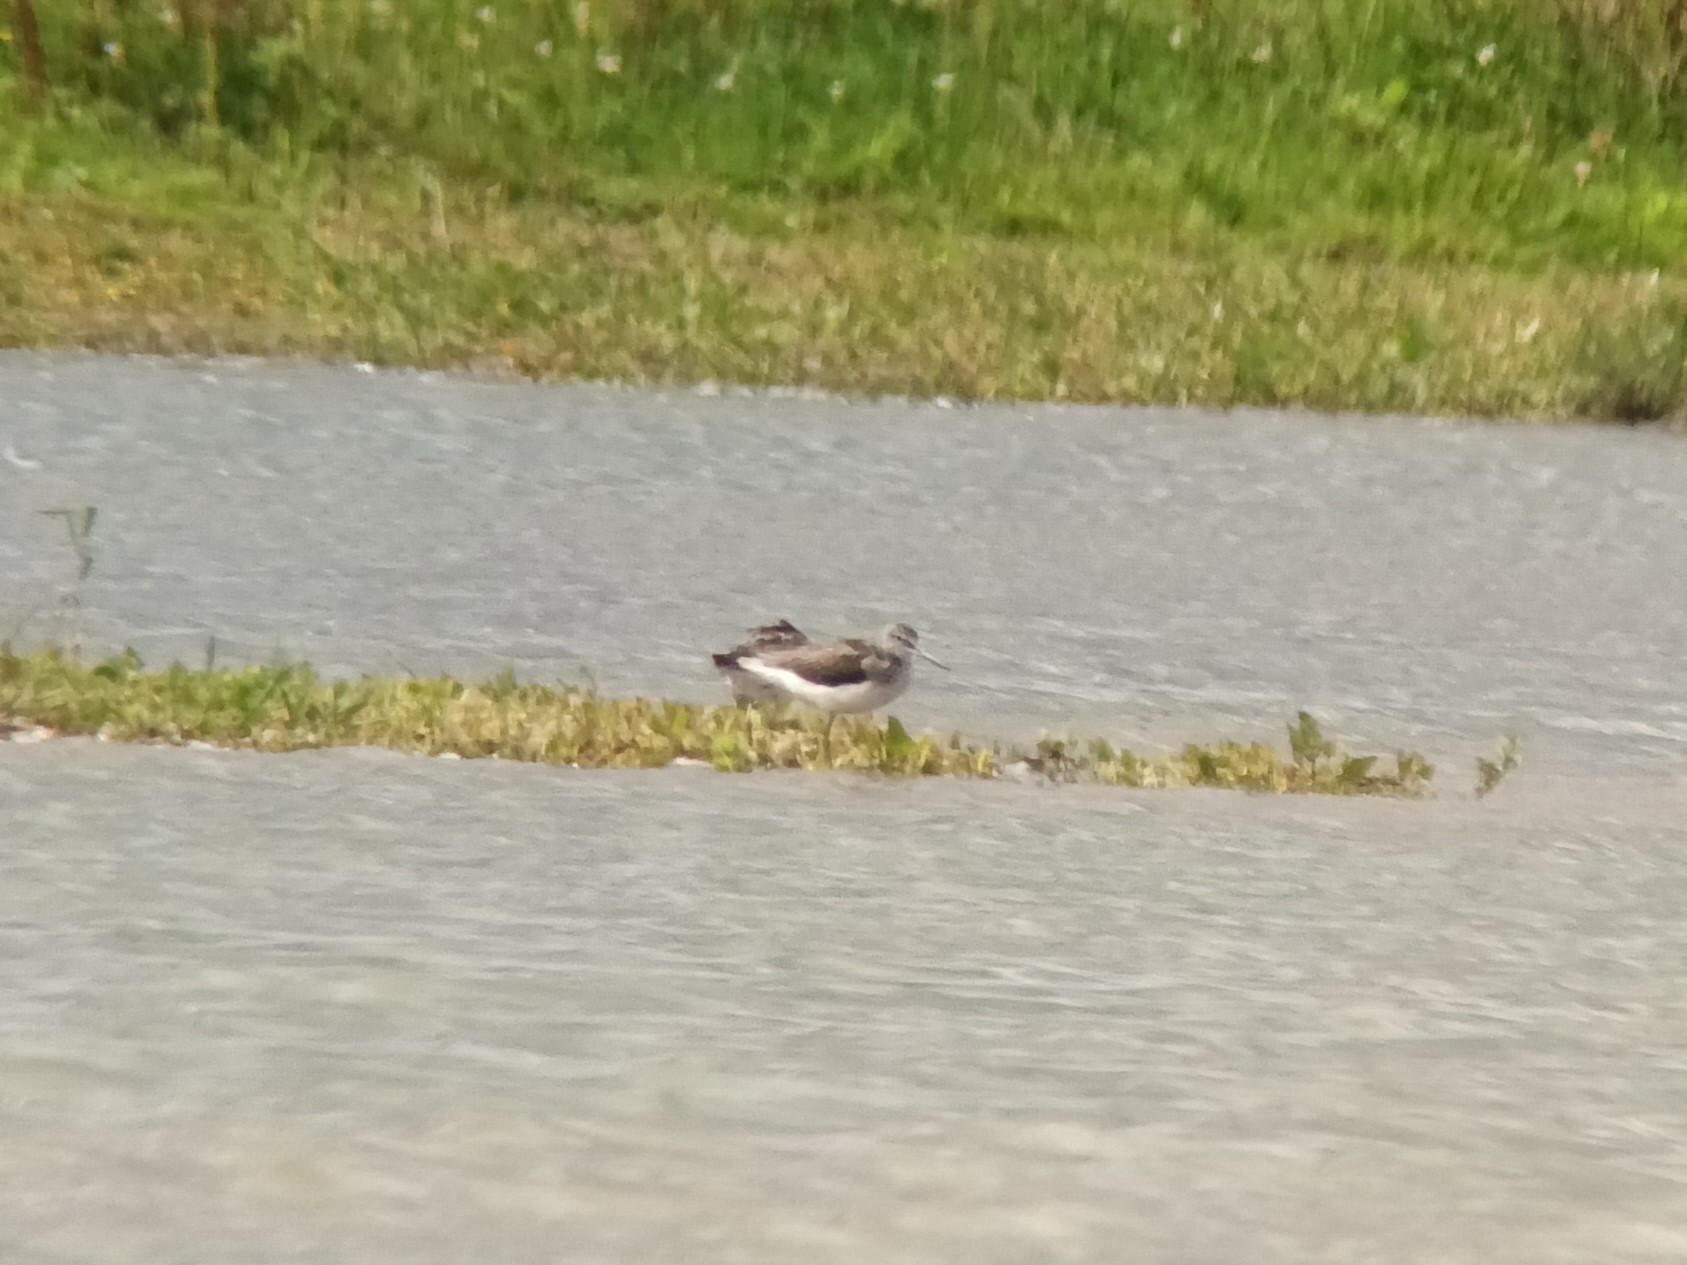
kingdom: Animalia
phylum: Chordata
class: Aves
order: Charadriiformes
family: Scolopacidae
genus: Tringa
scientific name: Tringa nebularia
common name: Common greenshank
